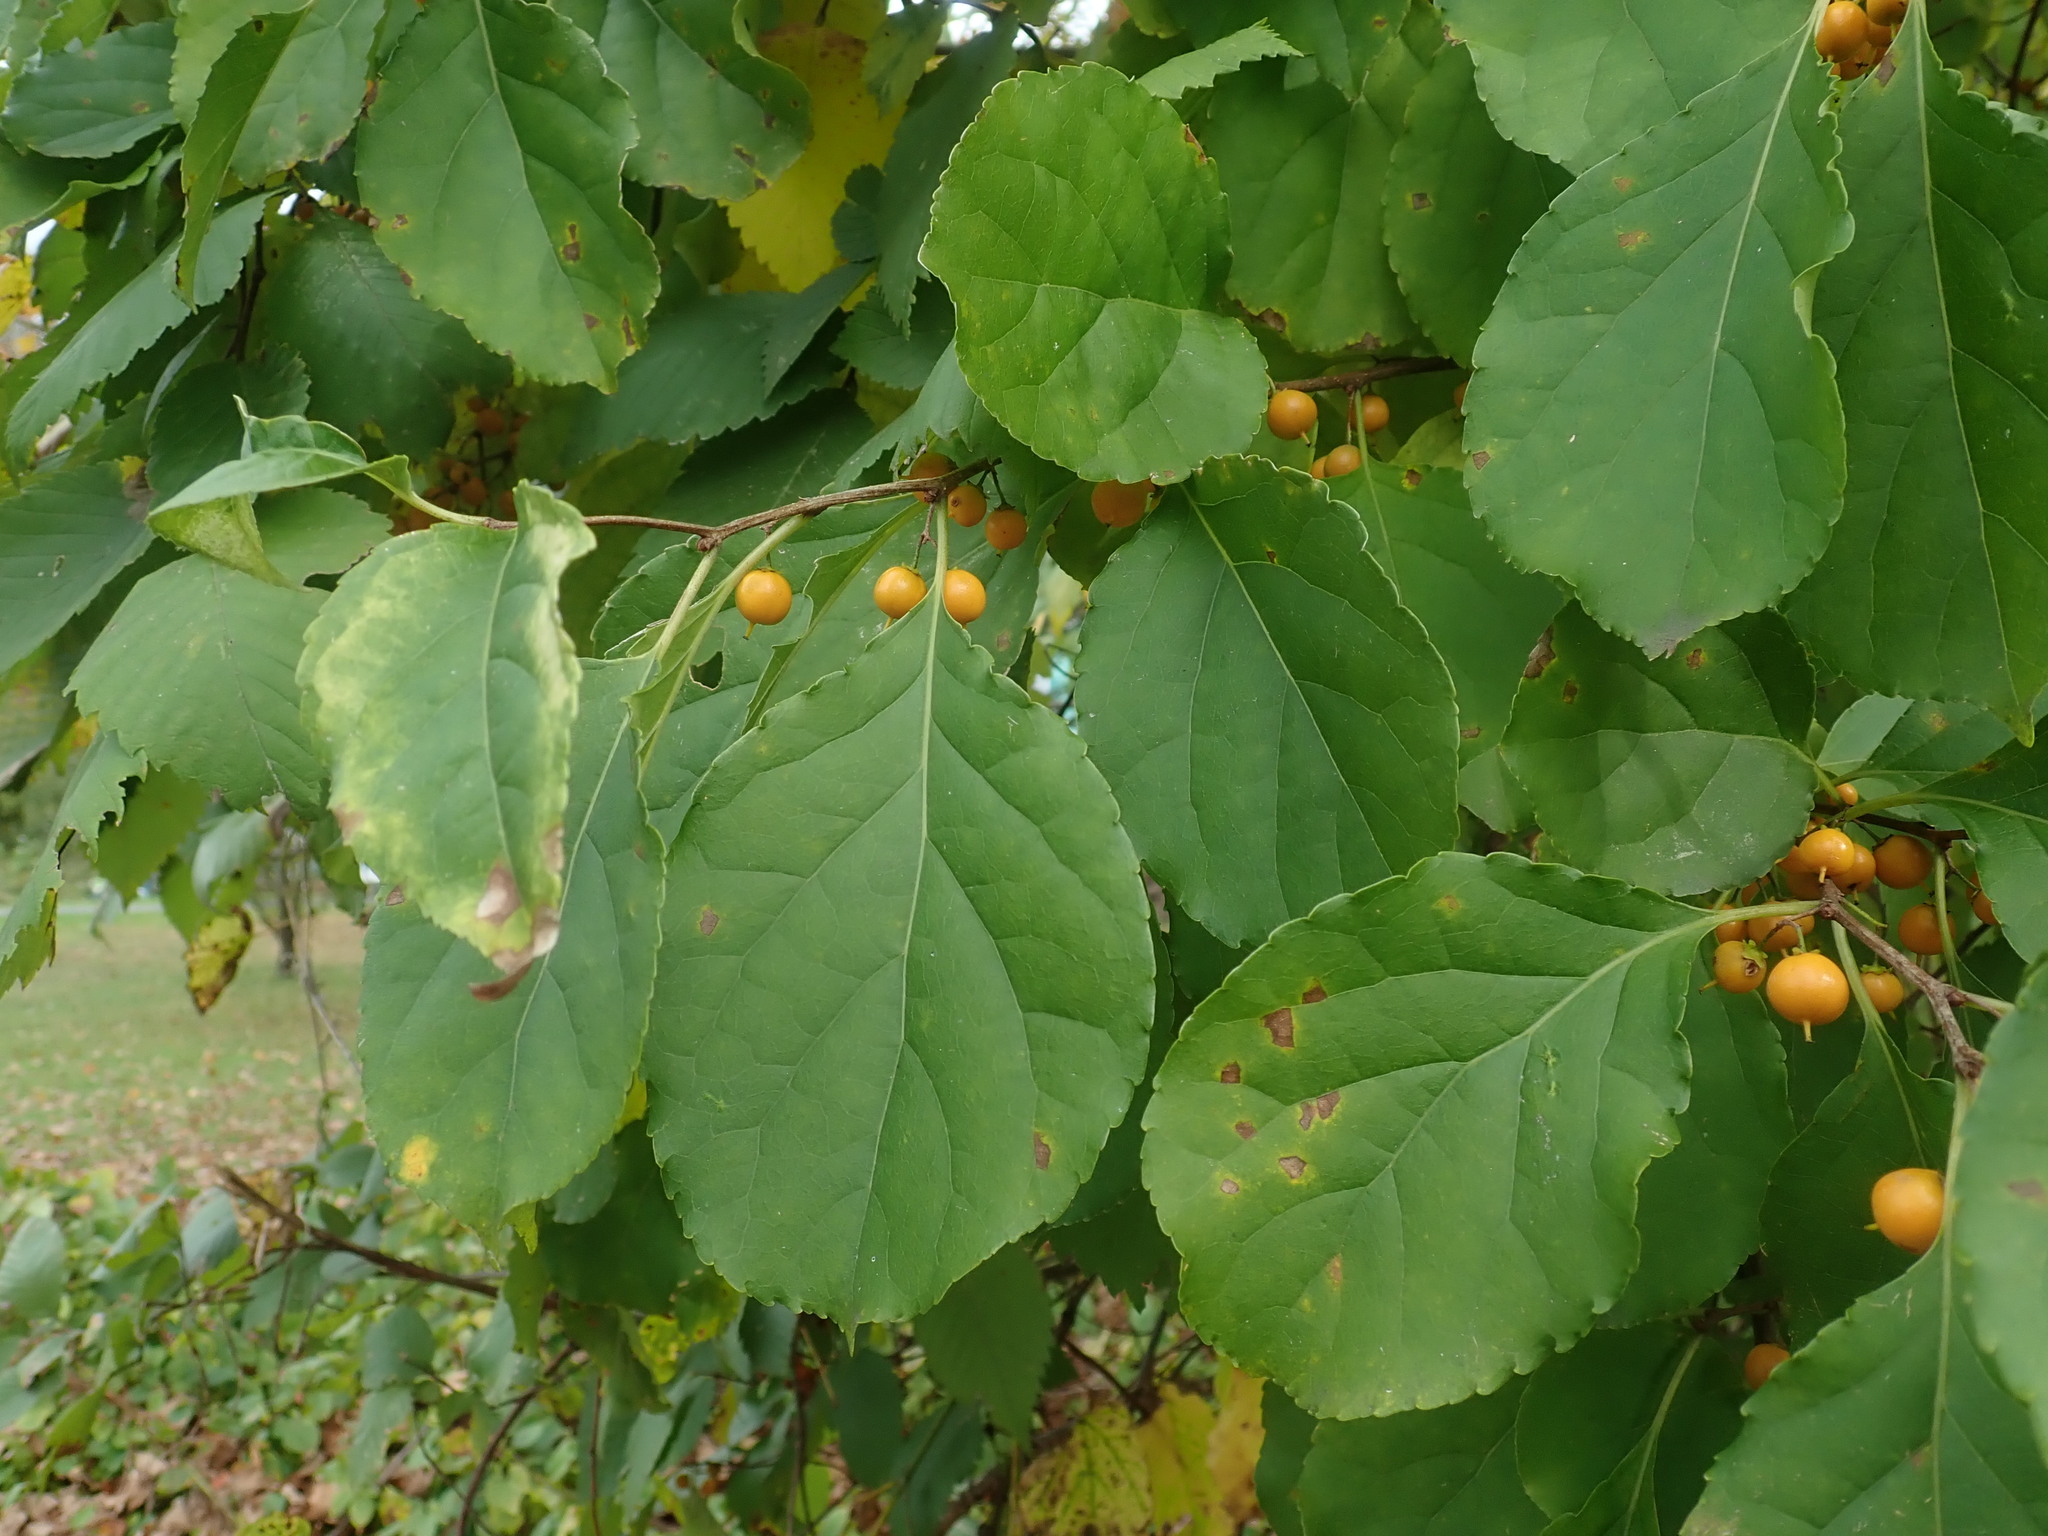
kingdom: Plantae
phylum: Tracheophyta
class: Magnoliopsida
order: Celastrales
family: Celastraceae
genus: Celastrus
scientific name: Celastrus orbiculatus
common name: Oriental bittersweet
